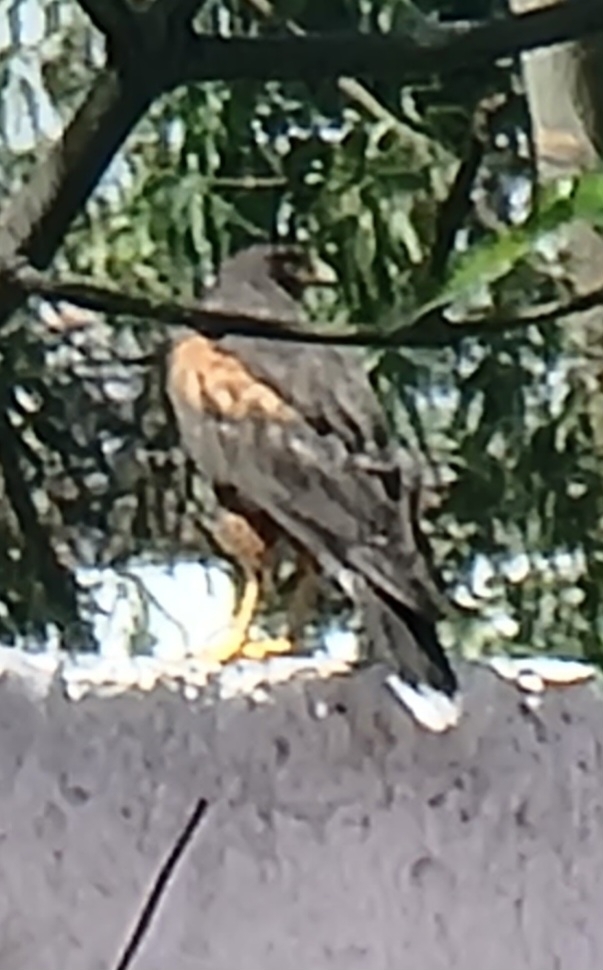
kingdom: Animalia
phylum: Chordata
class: Aves
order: Accipitriformes
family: Accipitridae
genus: Parabuteo
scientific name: Parabuteo unicinctus
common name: Harris's hawk
